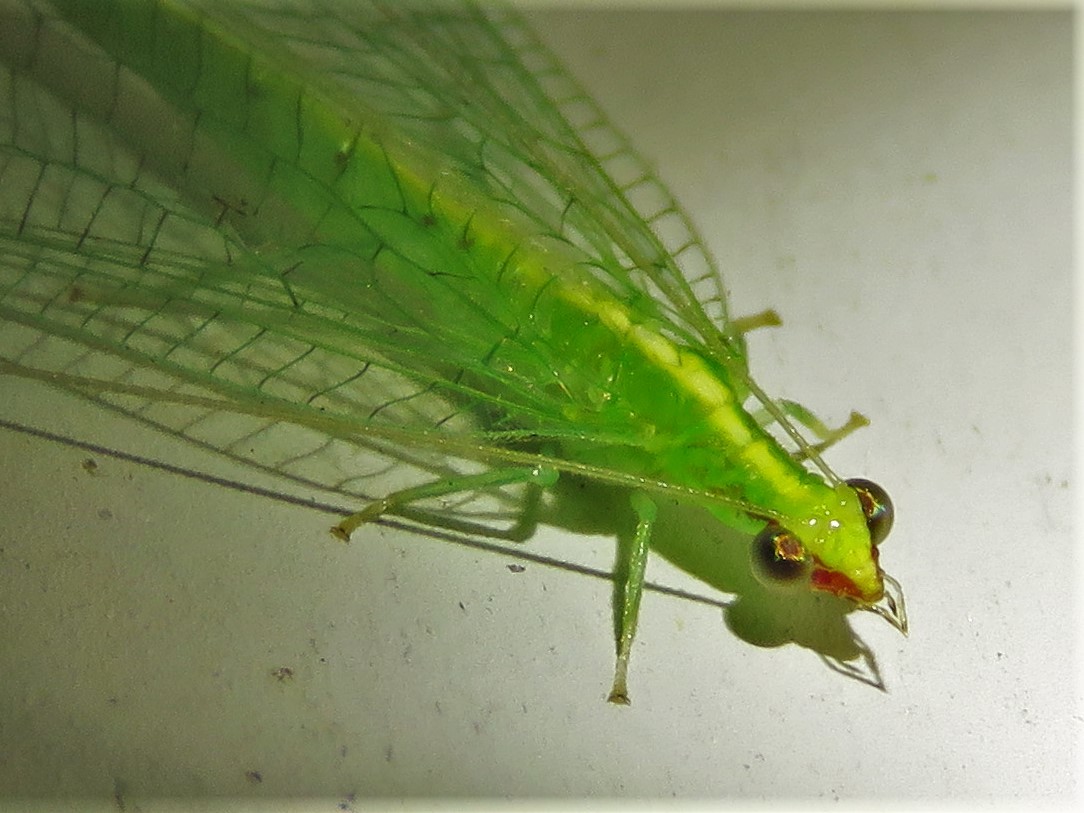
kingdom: Animalia
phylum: Arthropoda
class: Insecta
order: Neuroptera
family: Chrysopidae
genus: Chrysoperla
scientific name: Chrysoperla rufilabris
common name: Red-lipped green lacewing
